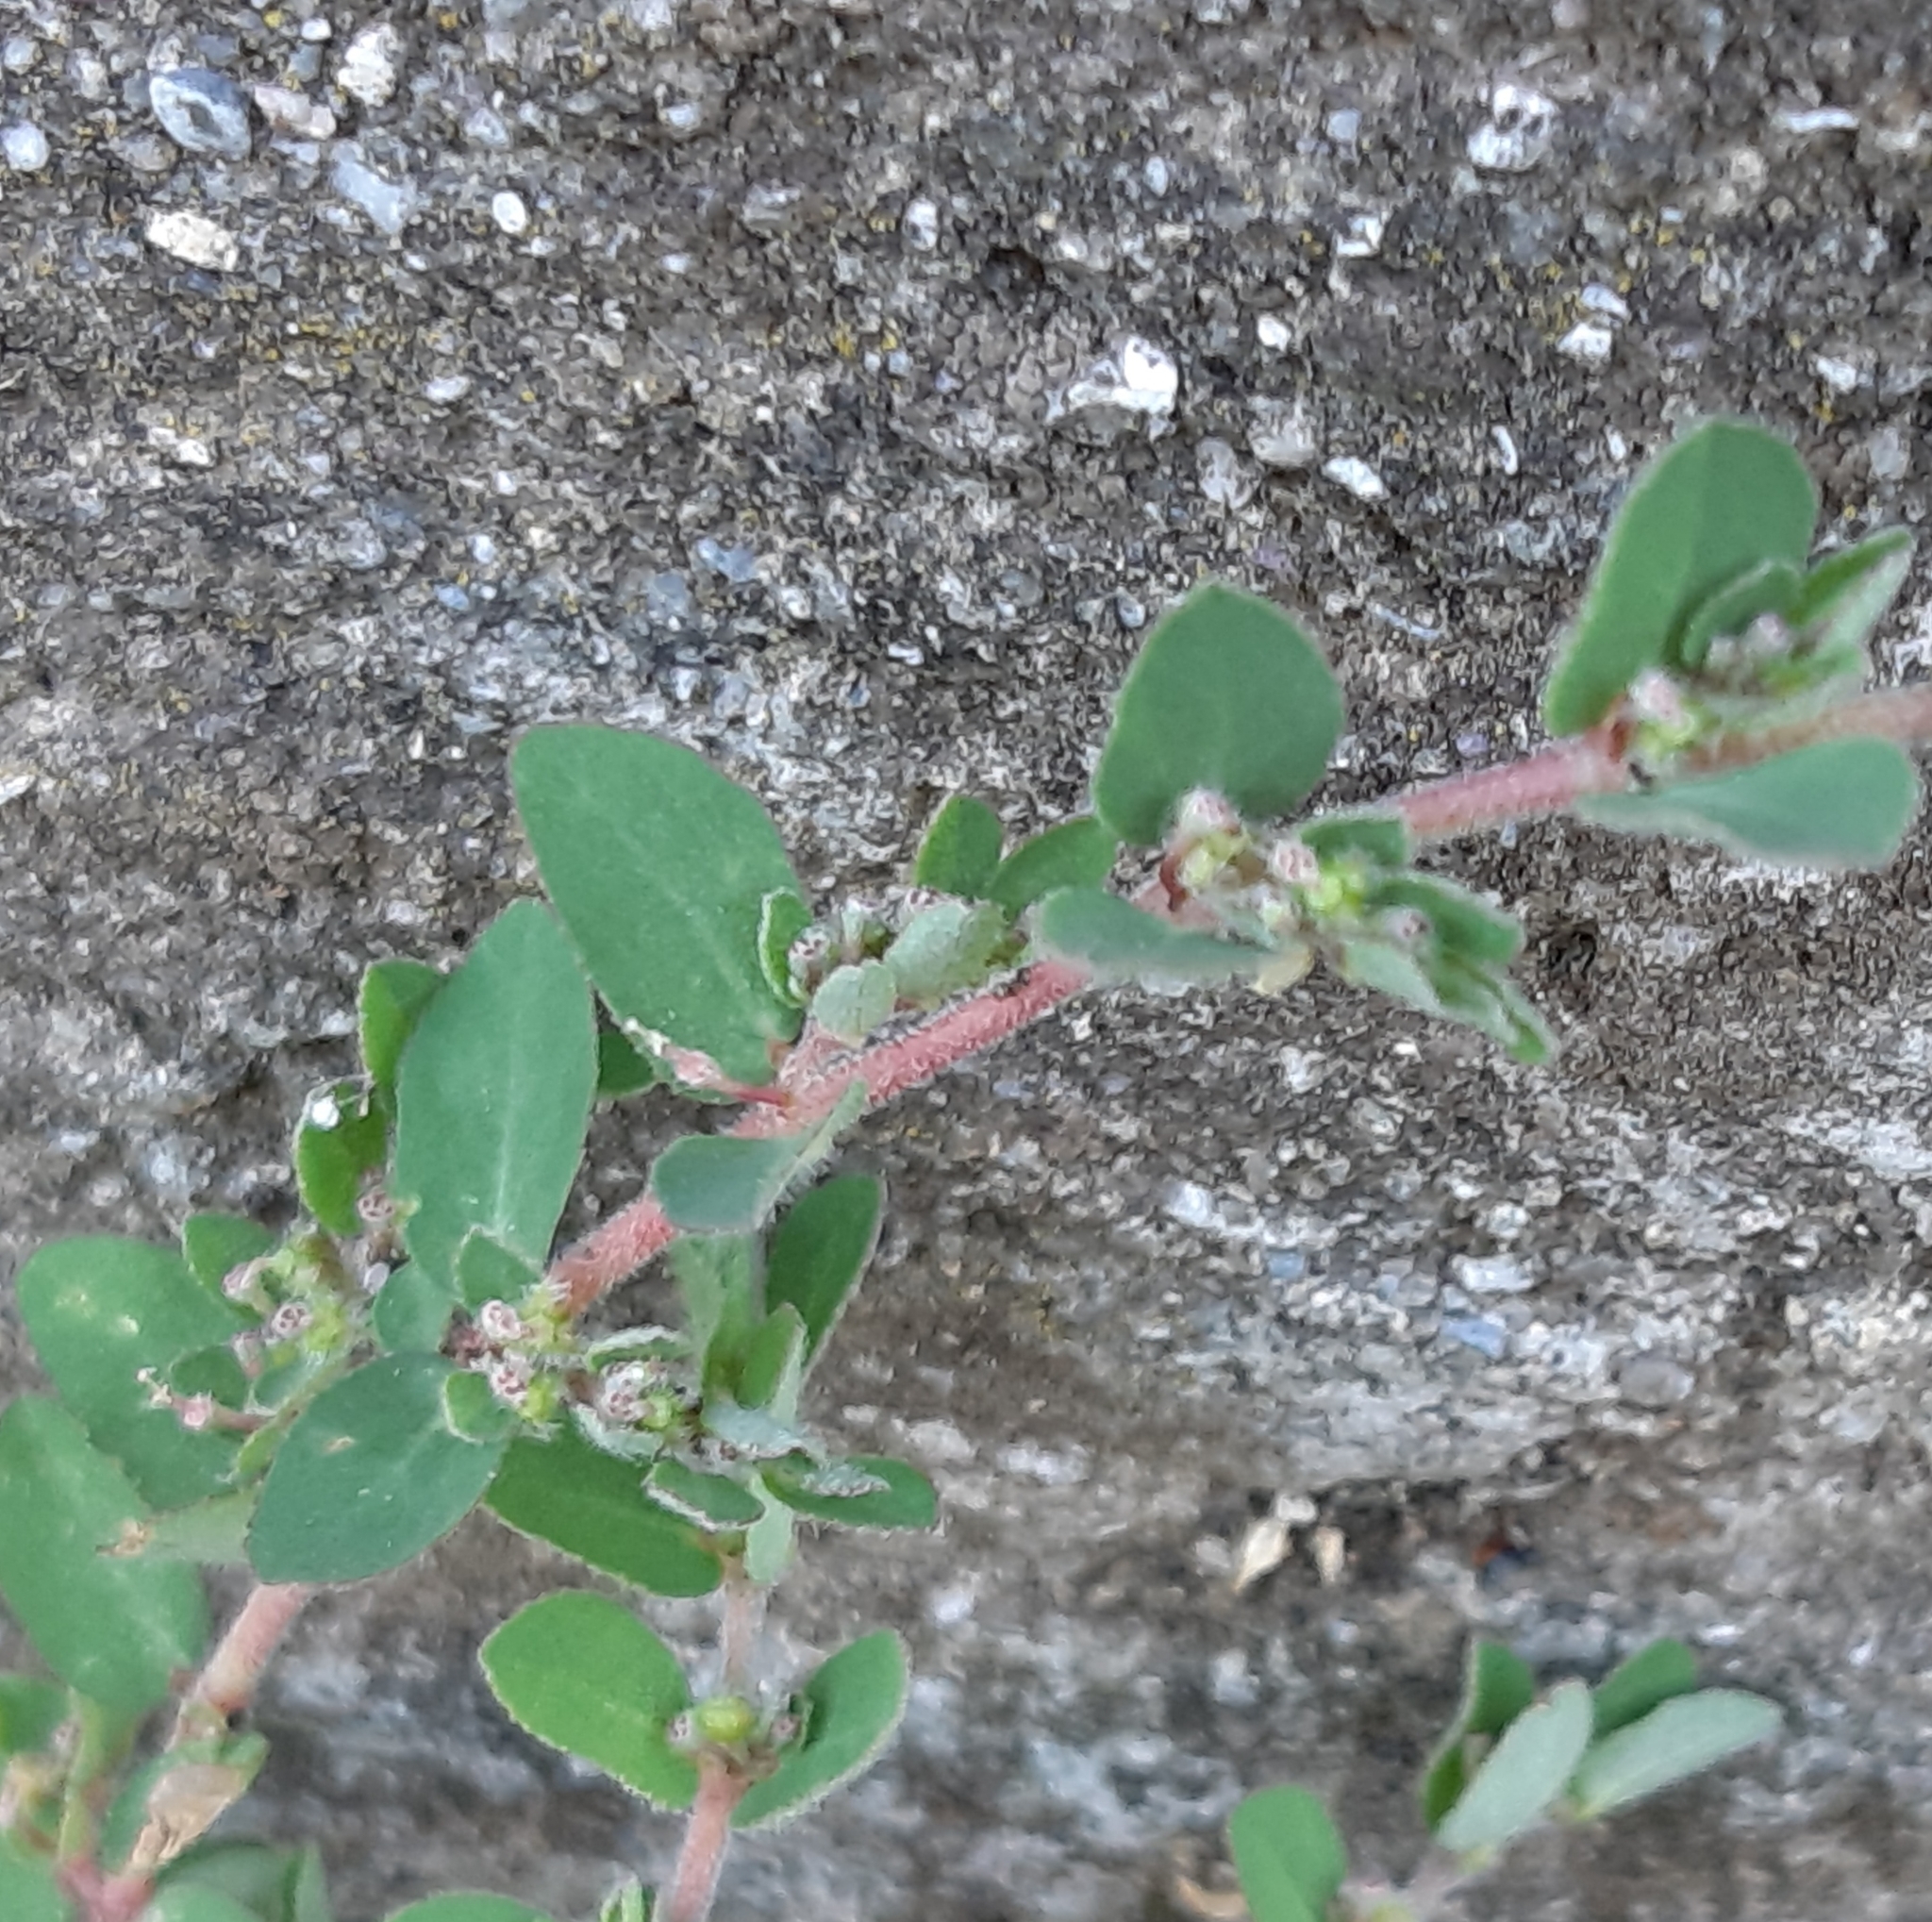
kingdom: Plantae
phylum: Tracheophyta
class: Magnoliopsida
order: Malpighiales
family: Euphorbiaceae
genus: Euphorbia
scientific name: Euphorbia prostrata
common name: Prostrate sandmat
